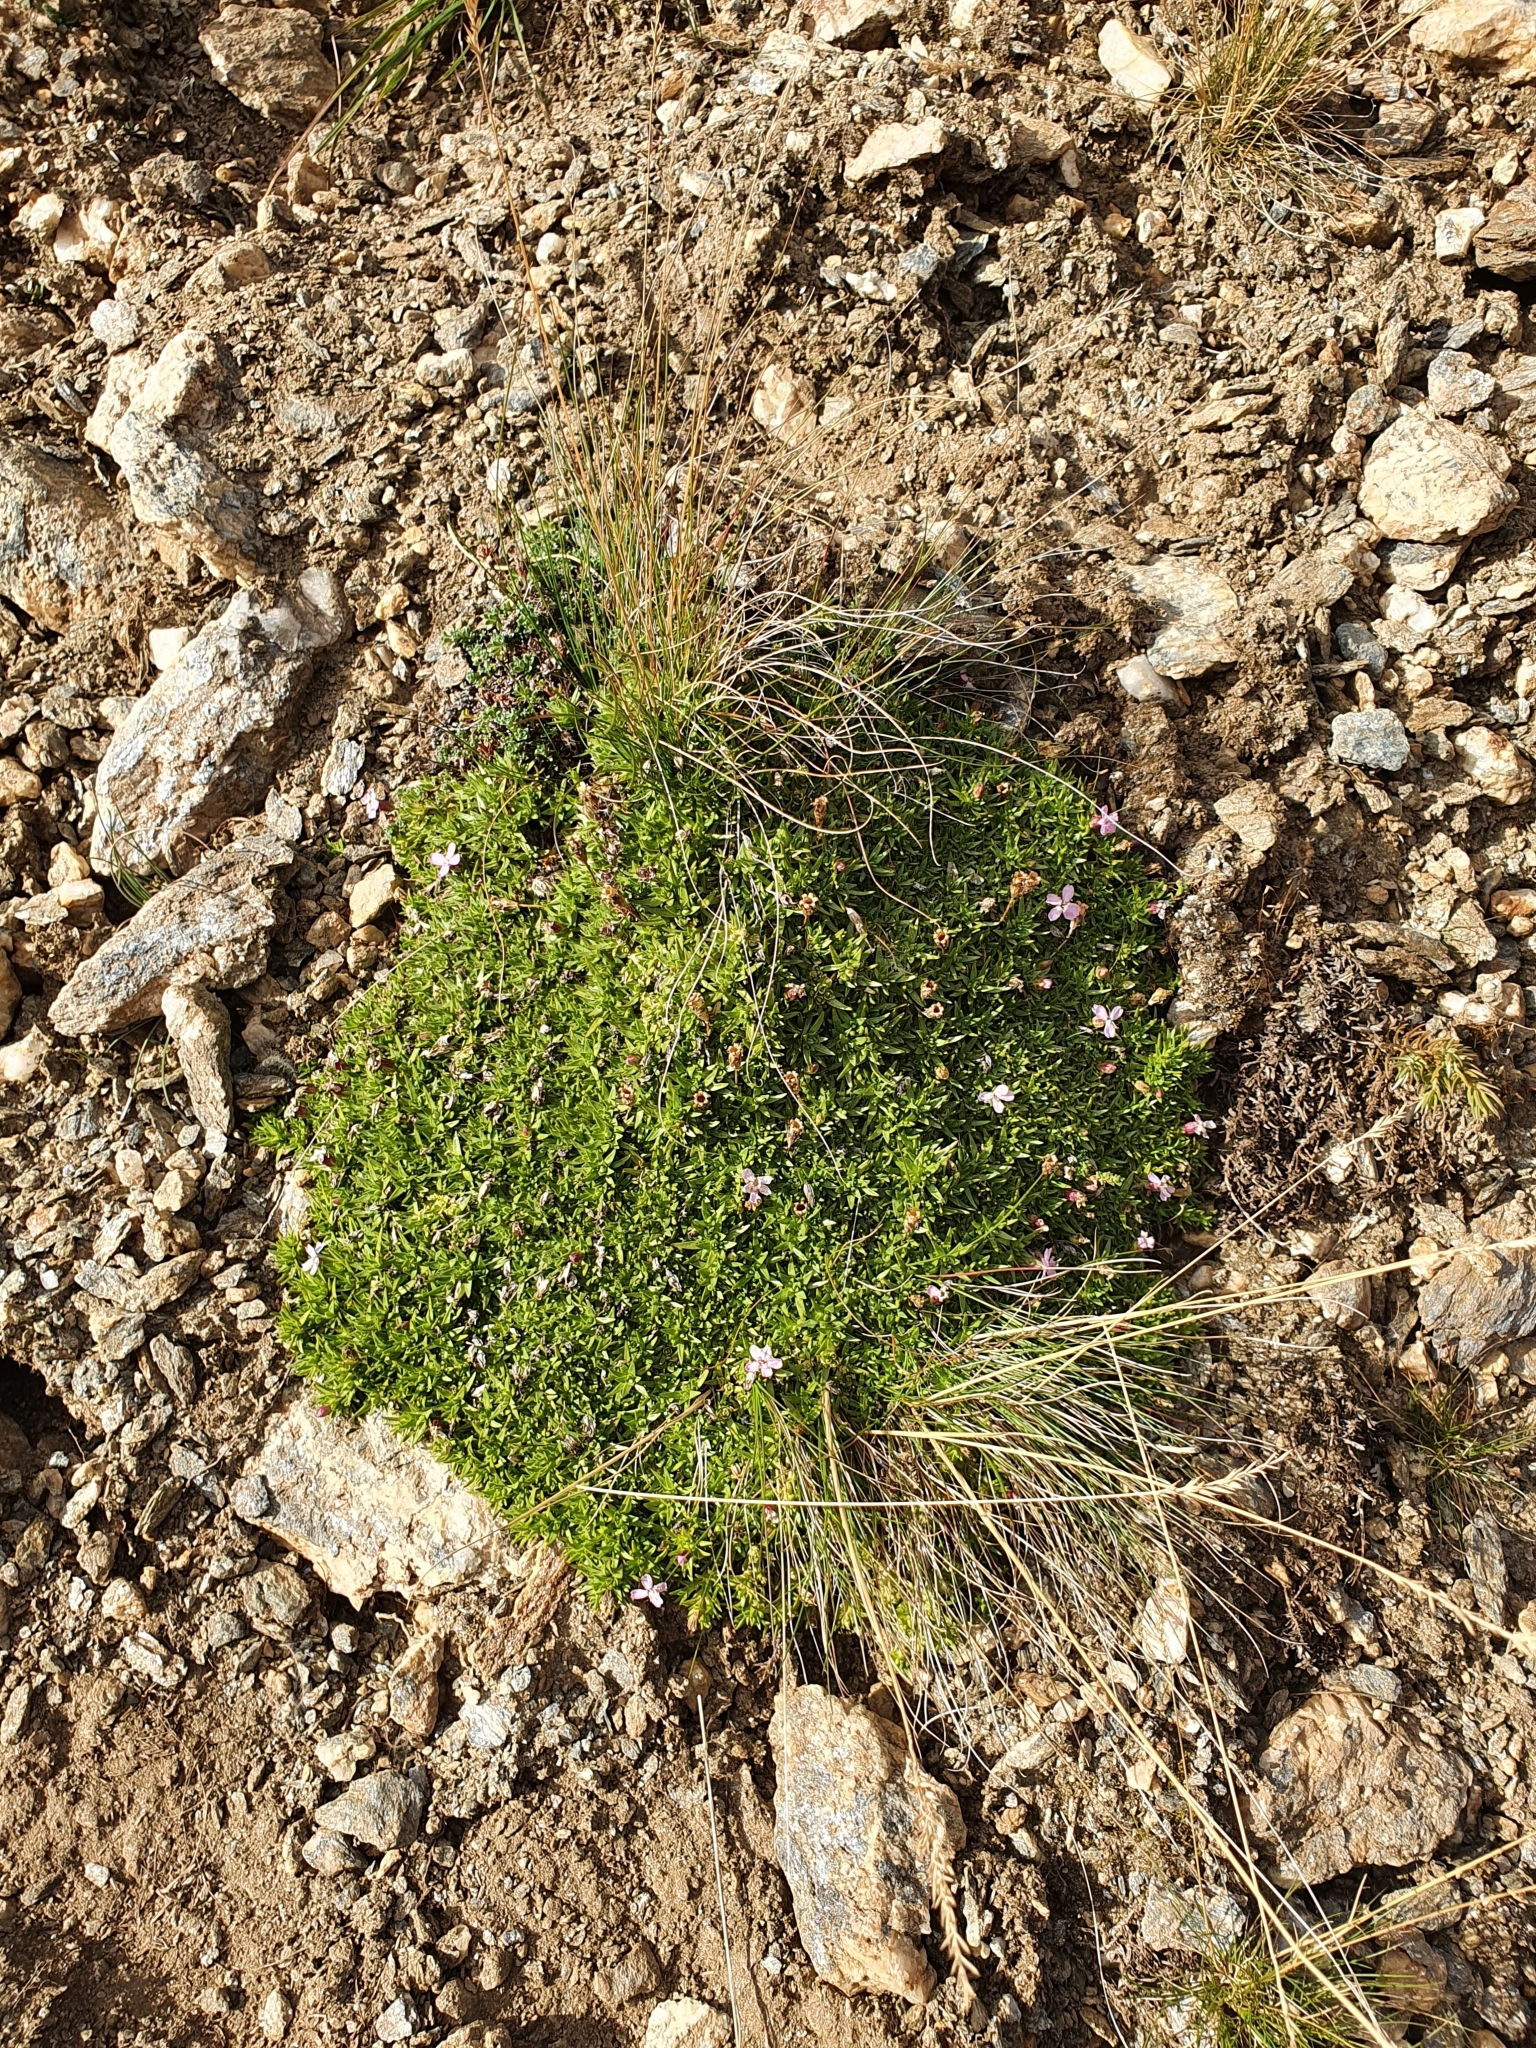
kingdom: Plantae
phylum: Tracheophyta
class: Magnoliopsida
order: Caryophyllales
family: Caryophyllaceae
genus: Silene
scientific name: Silene acaulis
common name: Moss campion
